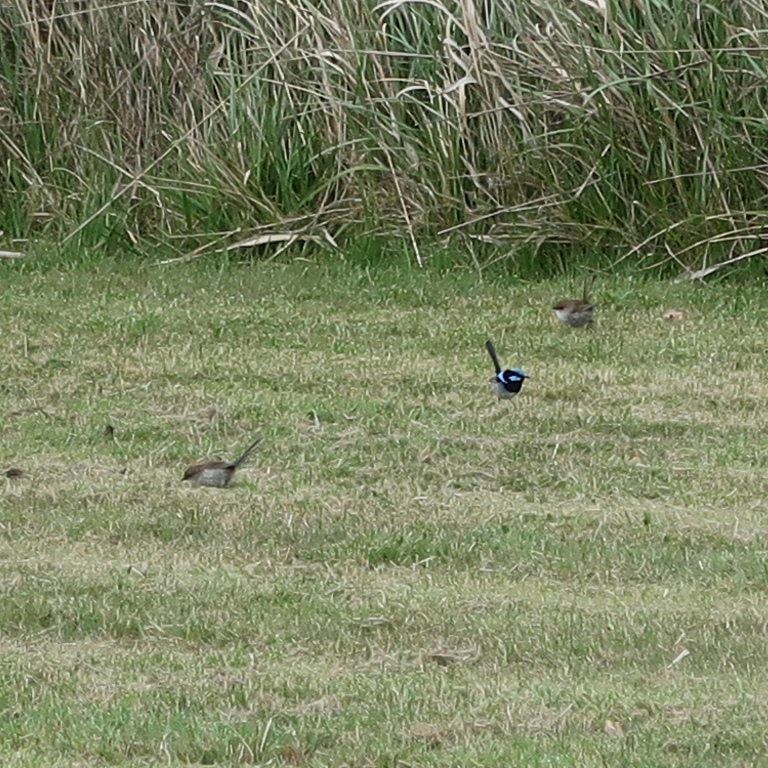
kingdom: Animalia
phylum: Chordata
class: Aves
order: Passeriformes
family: Maluridae
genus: Malurus
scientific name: Malurus cyaneus
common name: Superb fairywren
